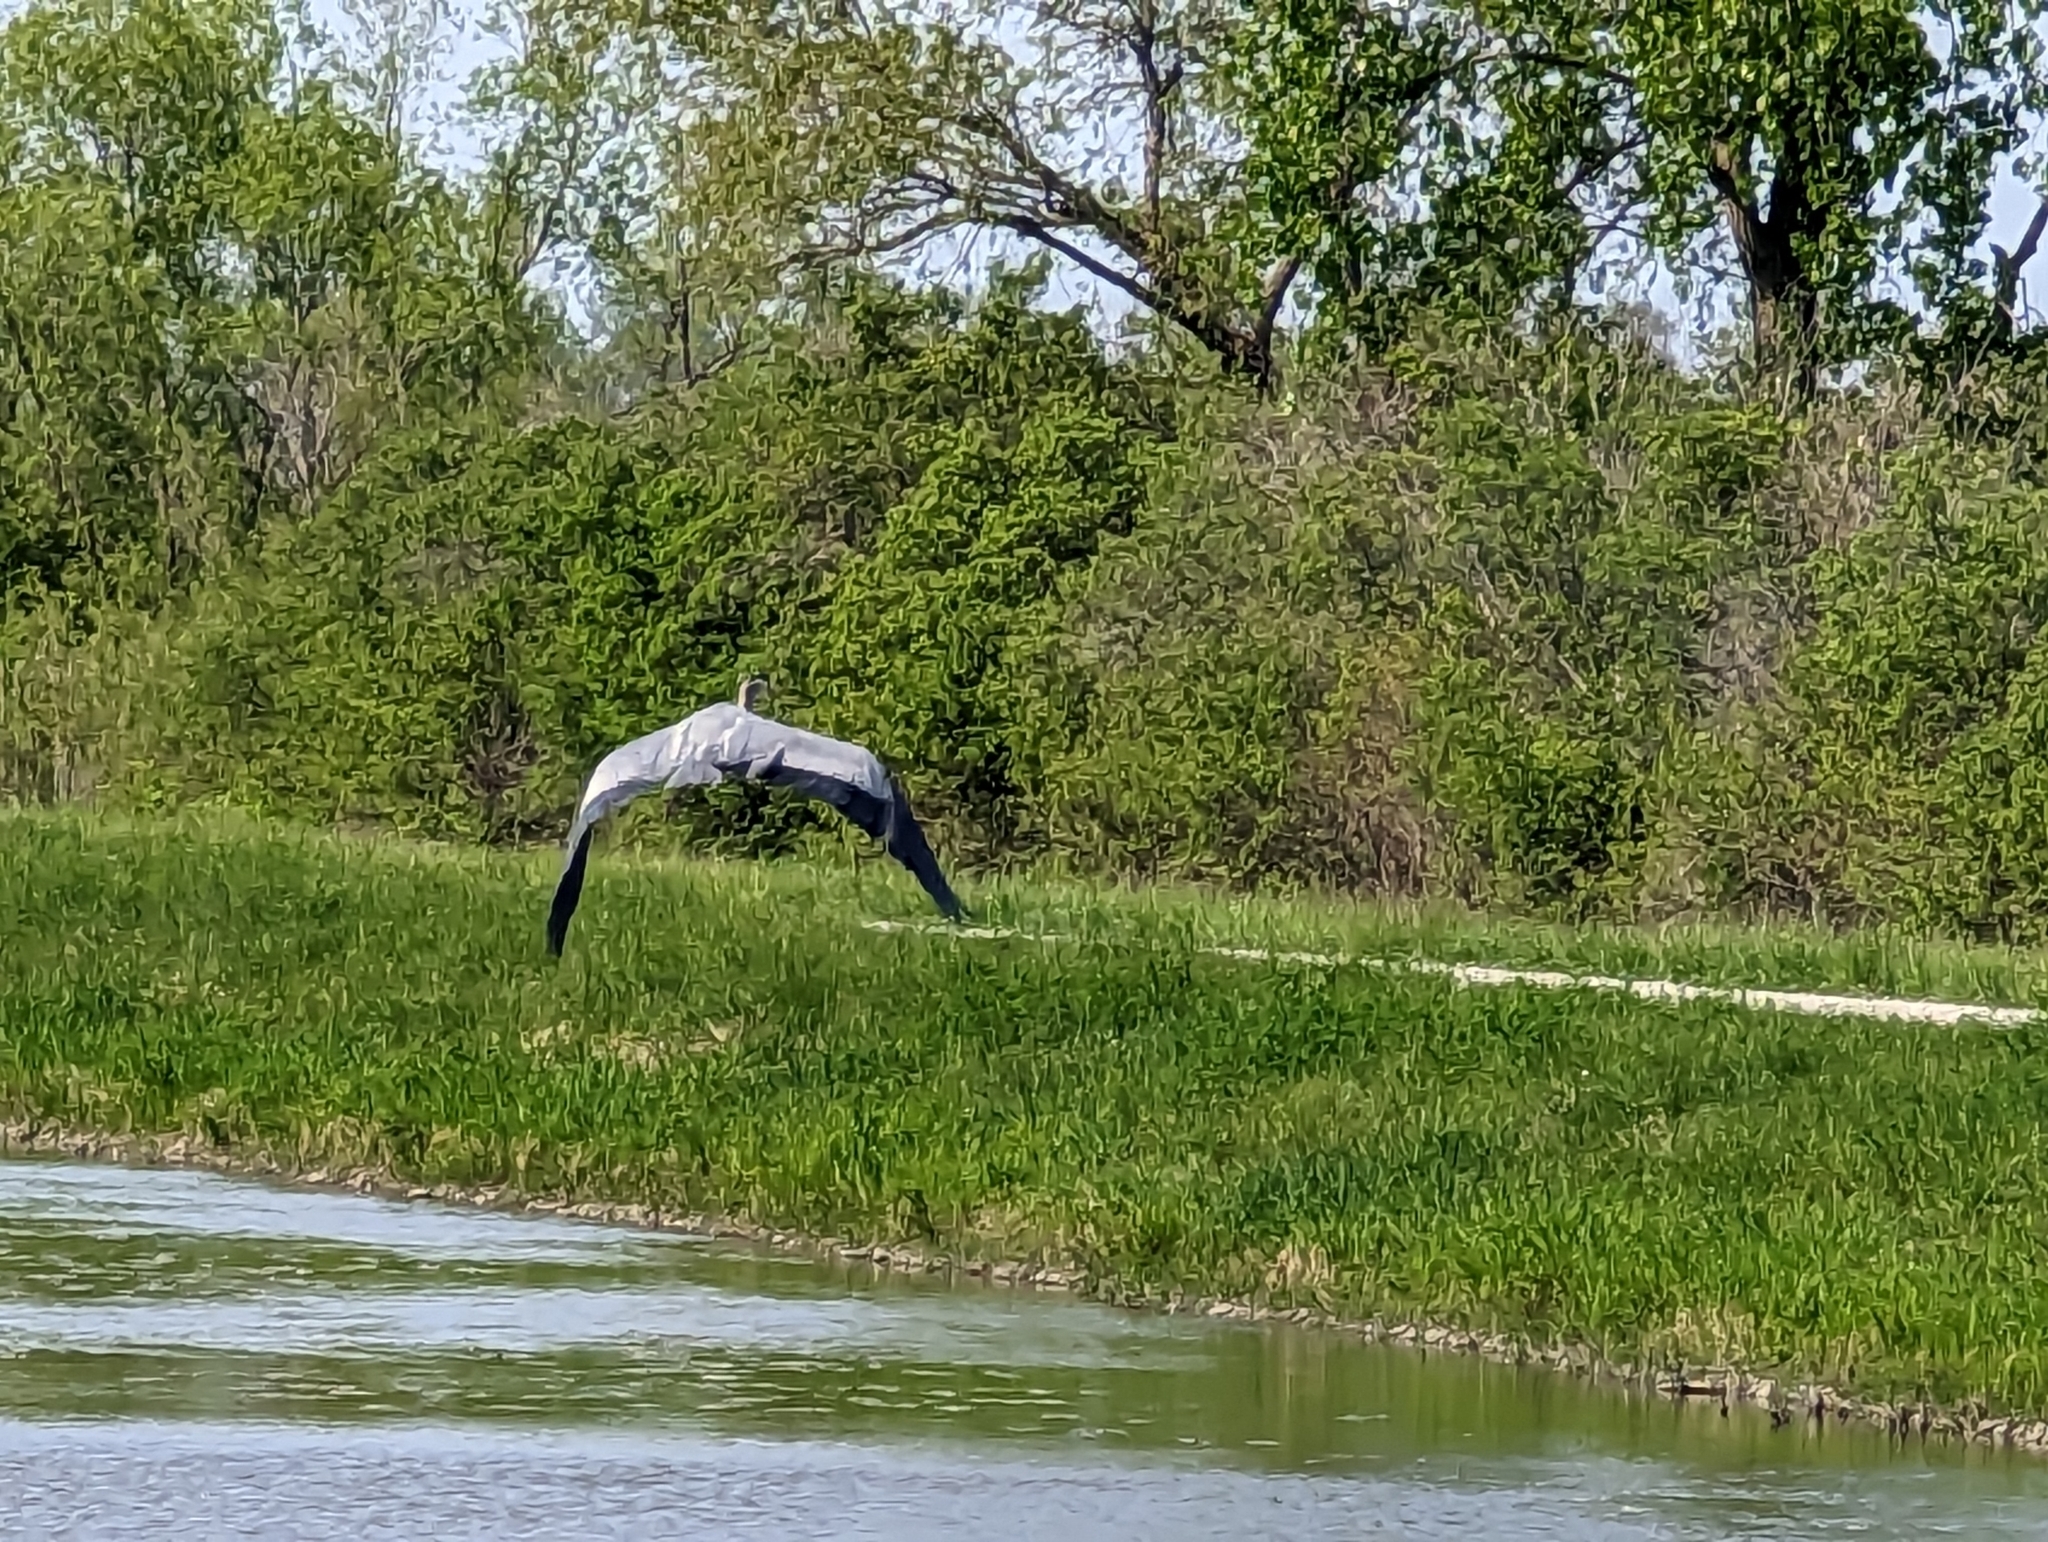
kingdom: Animalia
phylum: Chordata
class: Aves
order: Pelecaniformes
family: Ardeidae
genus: Ardea
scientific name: Ardea herodias
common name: Great blue heron
